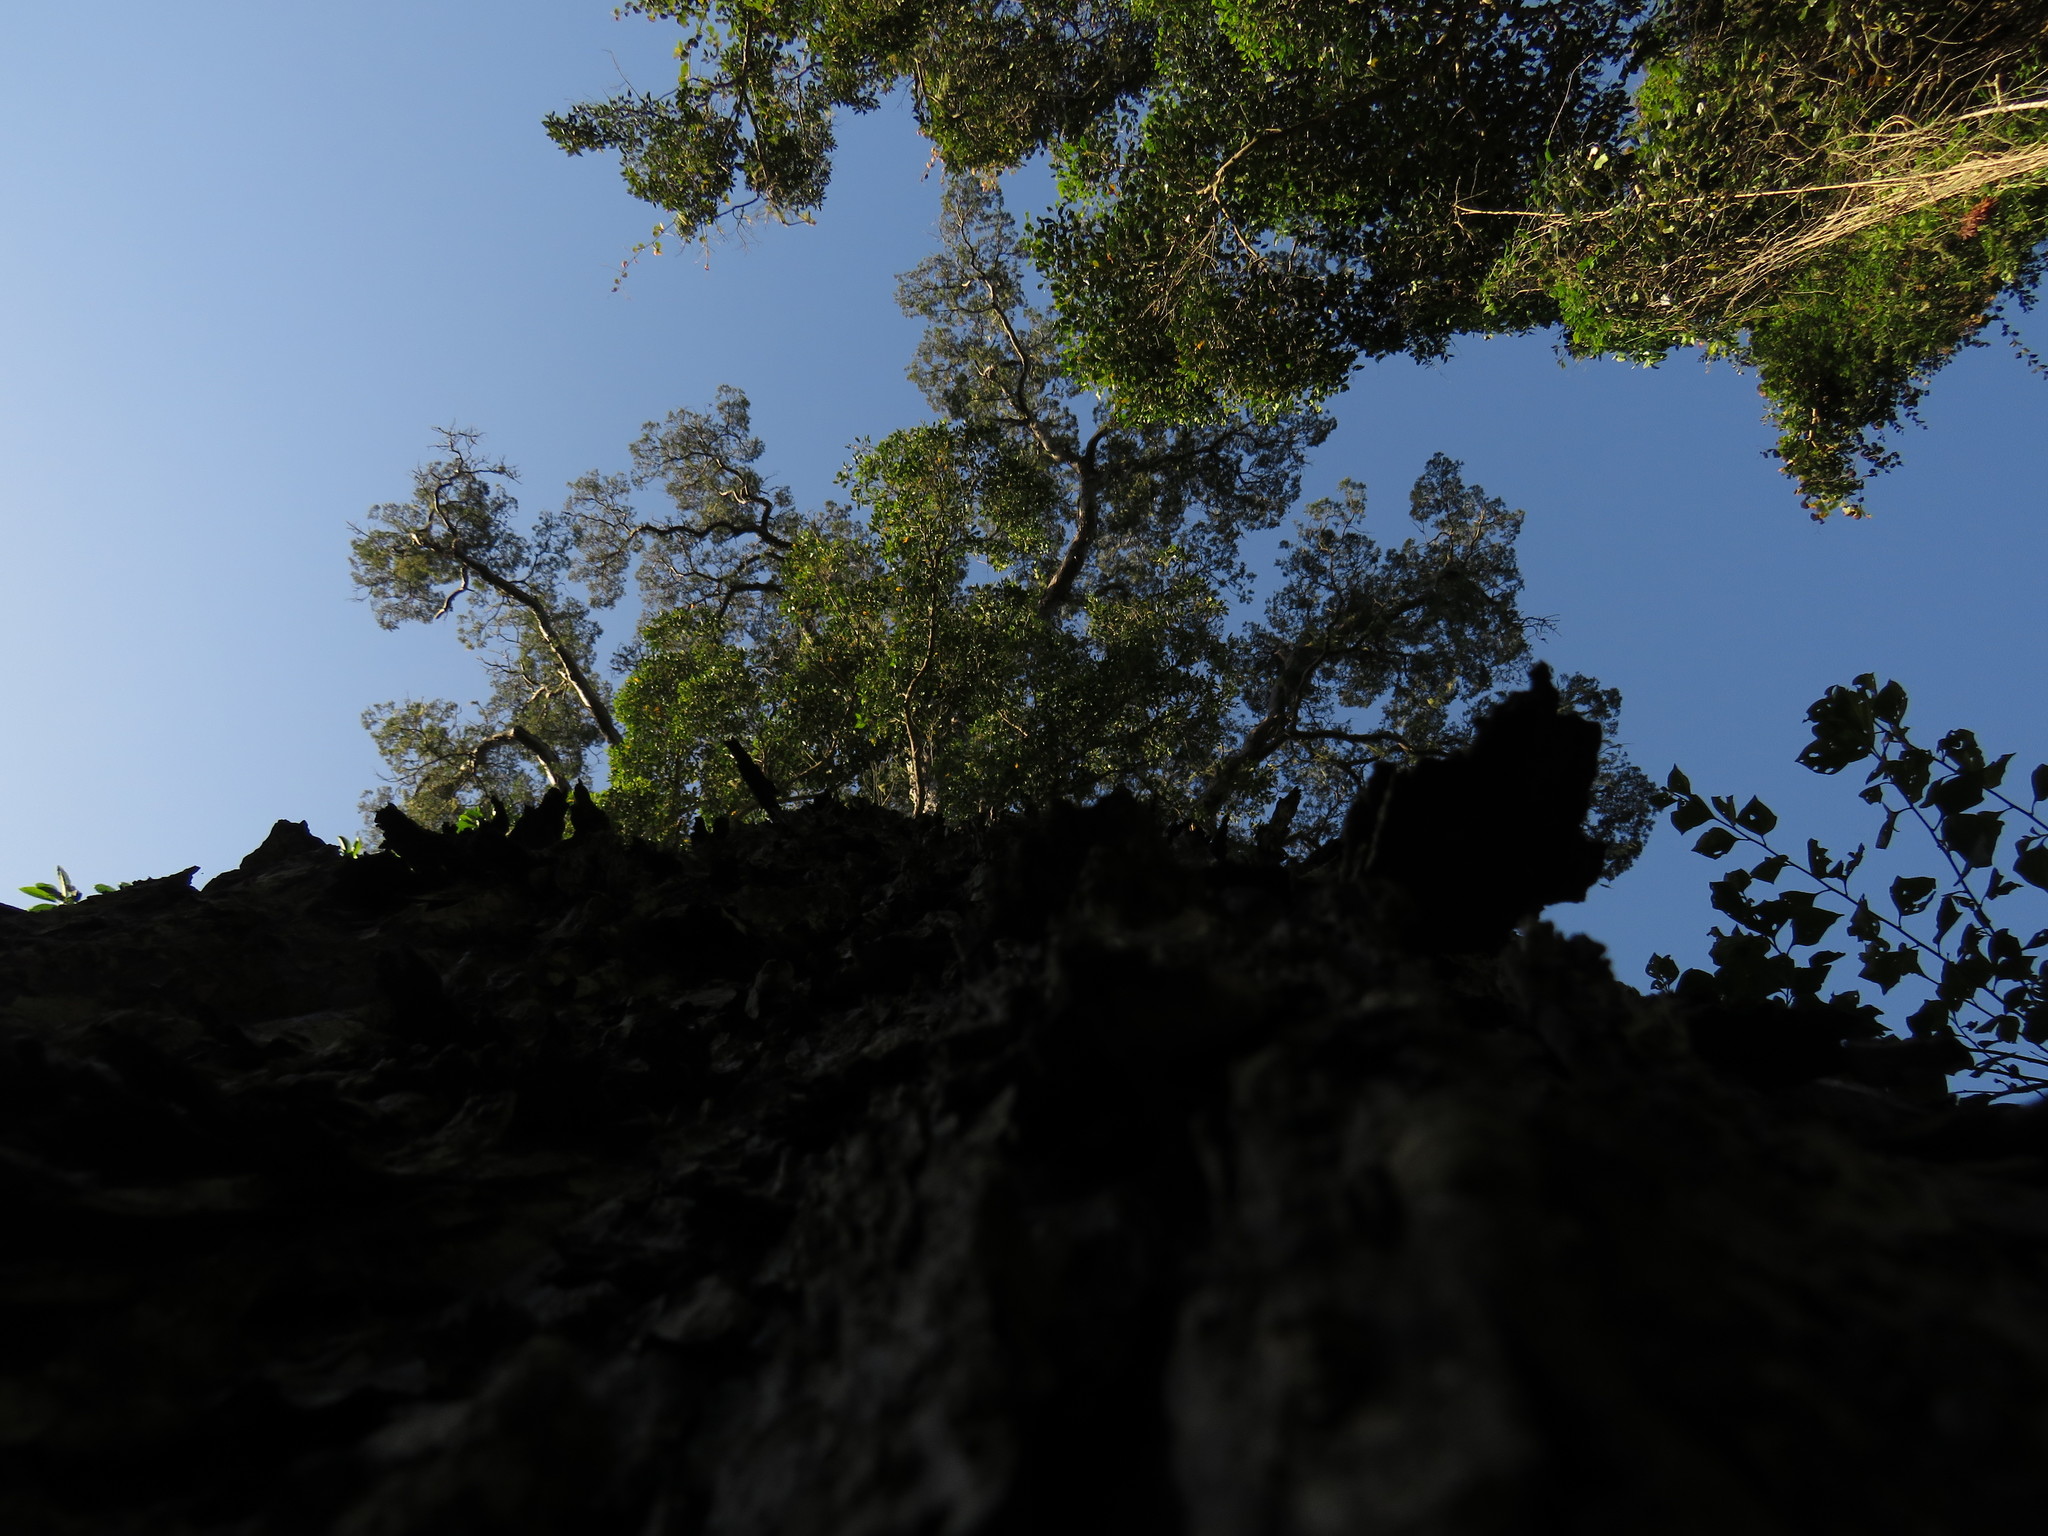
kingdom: Plantae
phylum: Tracheophyta
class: Pinopsida
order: Pinales
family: Podocarpaceae
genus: Afrocarpus
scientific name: Afrocarpus falcatus
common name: Bastard yellowwood
